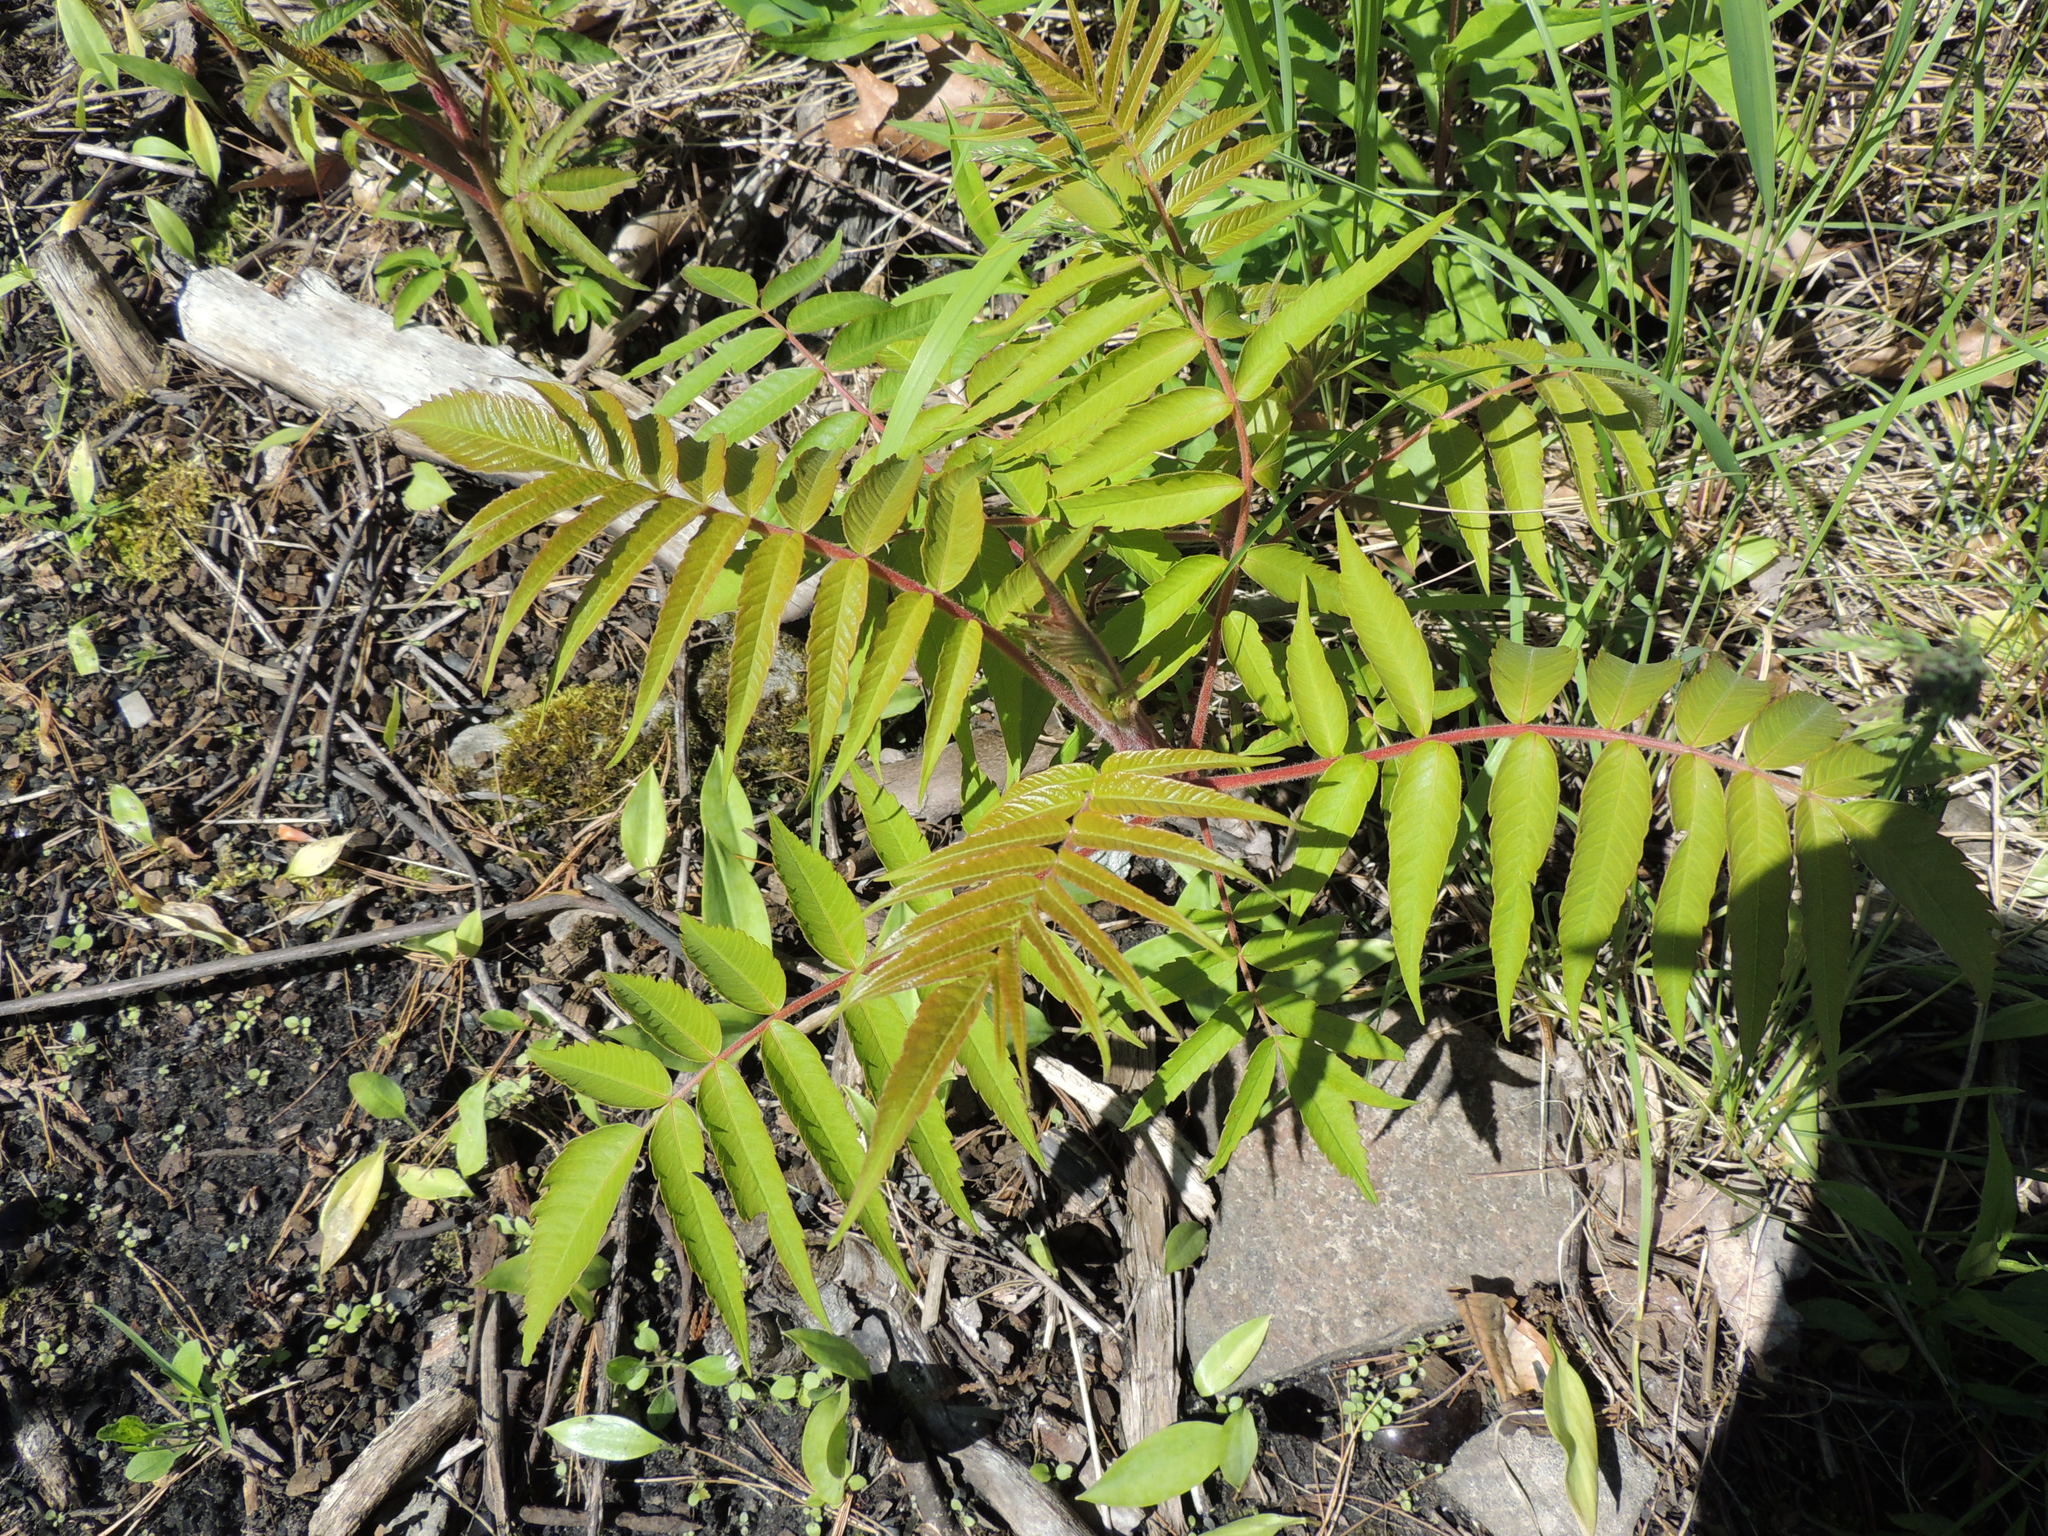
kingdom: Plantae
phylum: Tracheophyta
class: Magnoliopsida
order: Sapindales
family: Anacardiaceae
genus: Rhus
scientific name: Rhus typhina
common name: Staghorn sumac
